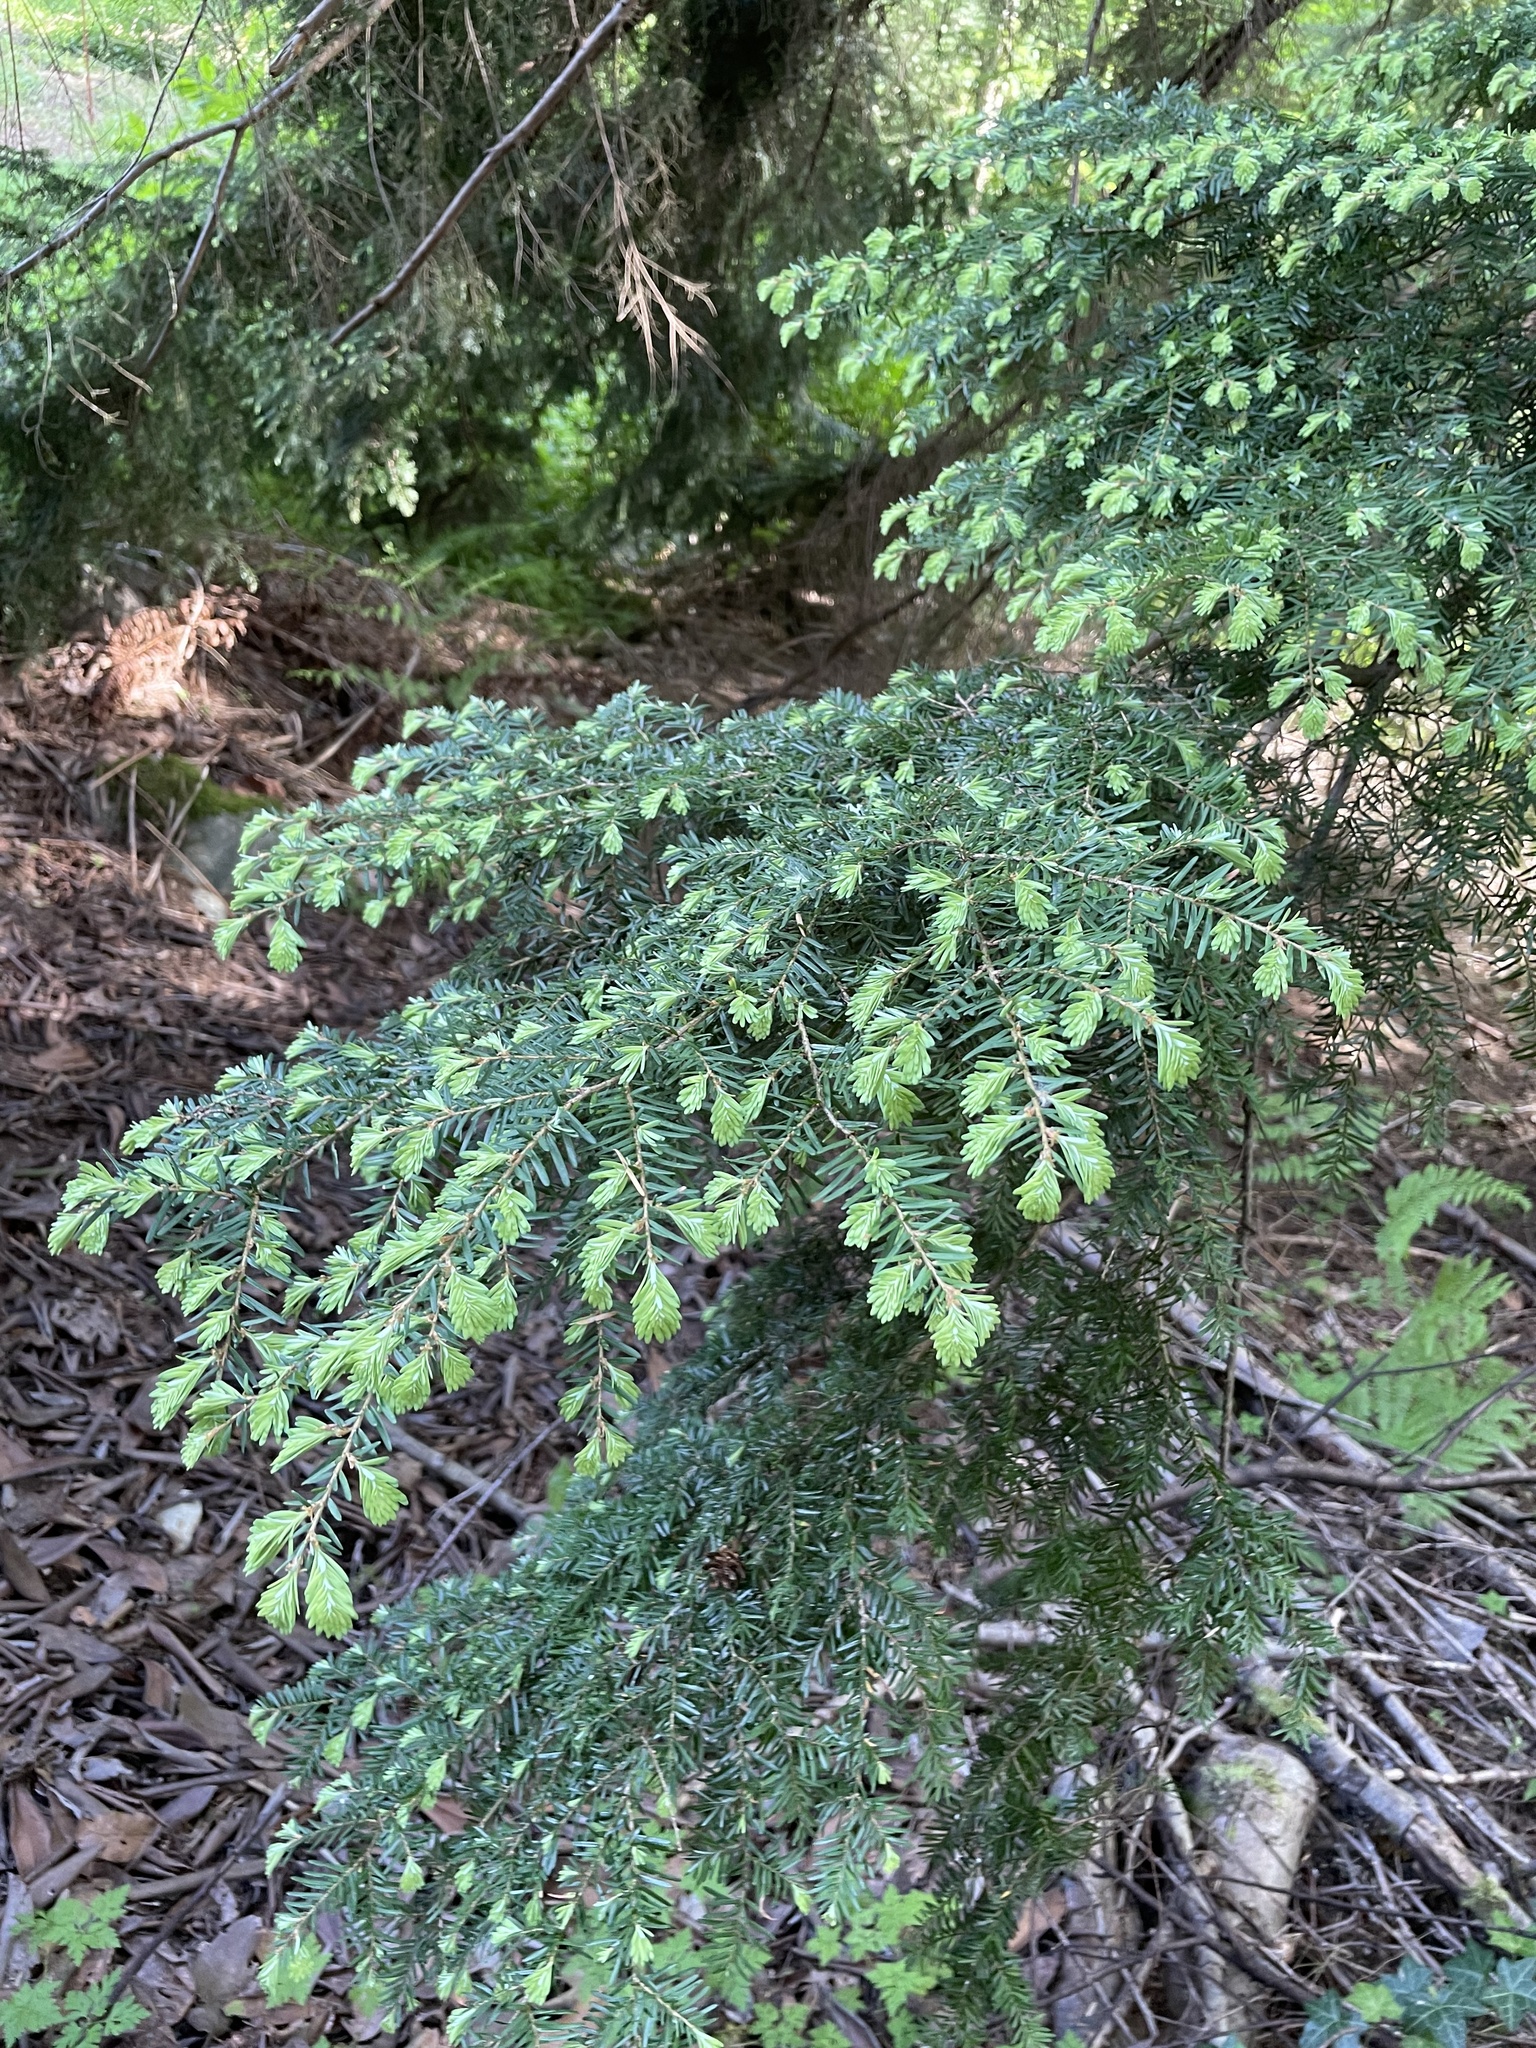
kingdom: Plantae
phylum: Tracheophyta
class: Pinopsida
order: Pinales
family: Pinaceae
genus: Tsuga
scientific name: Tsuga heterophylla
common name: Western hemlock
